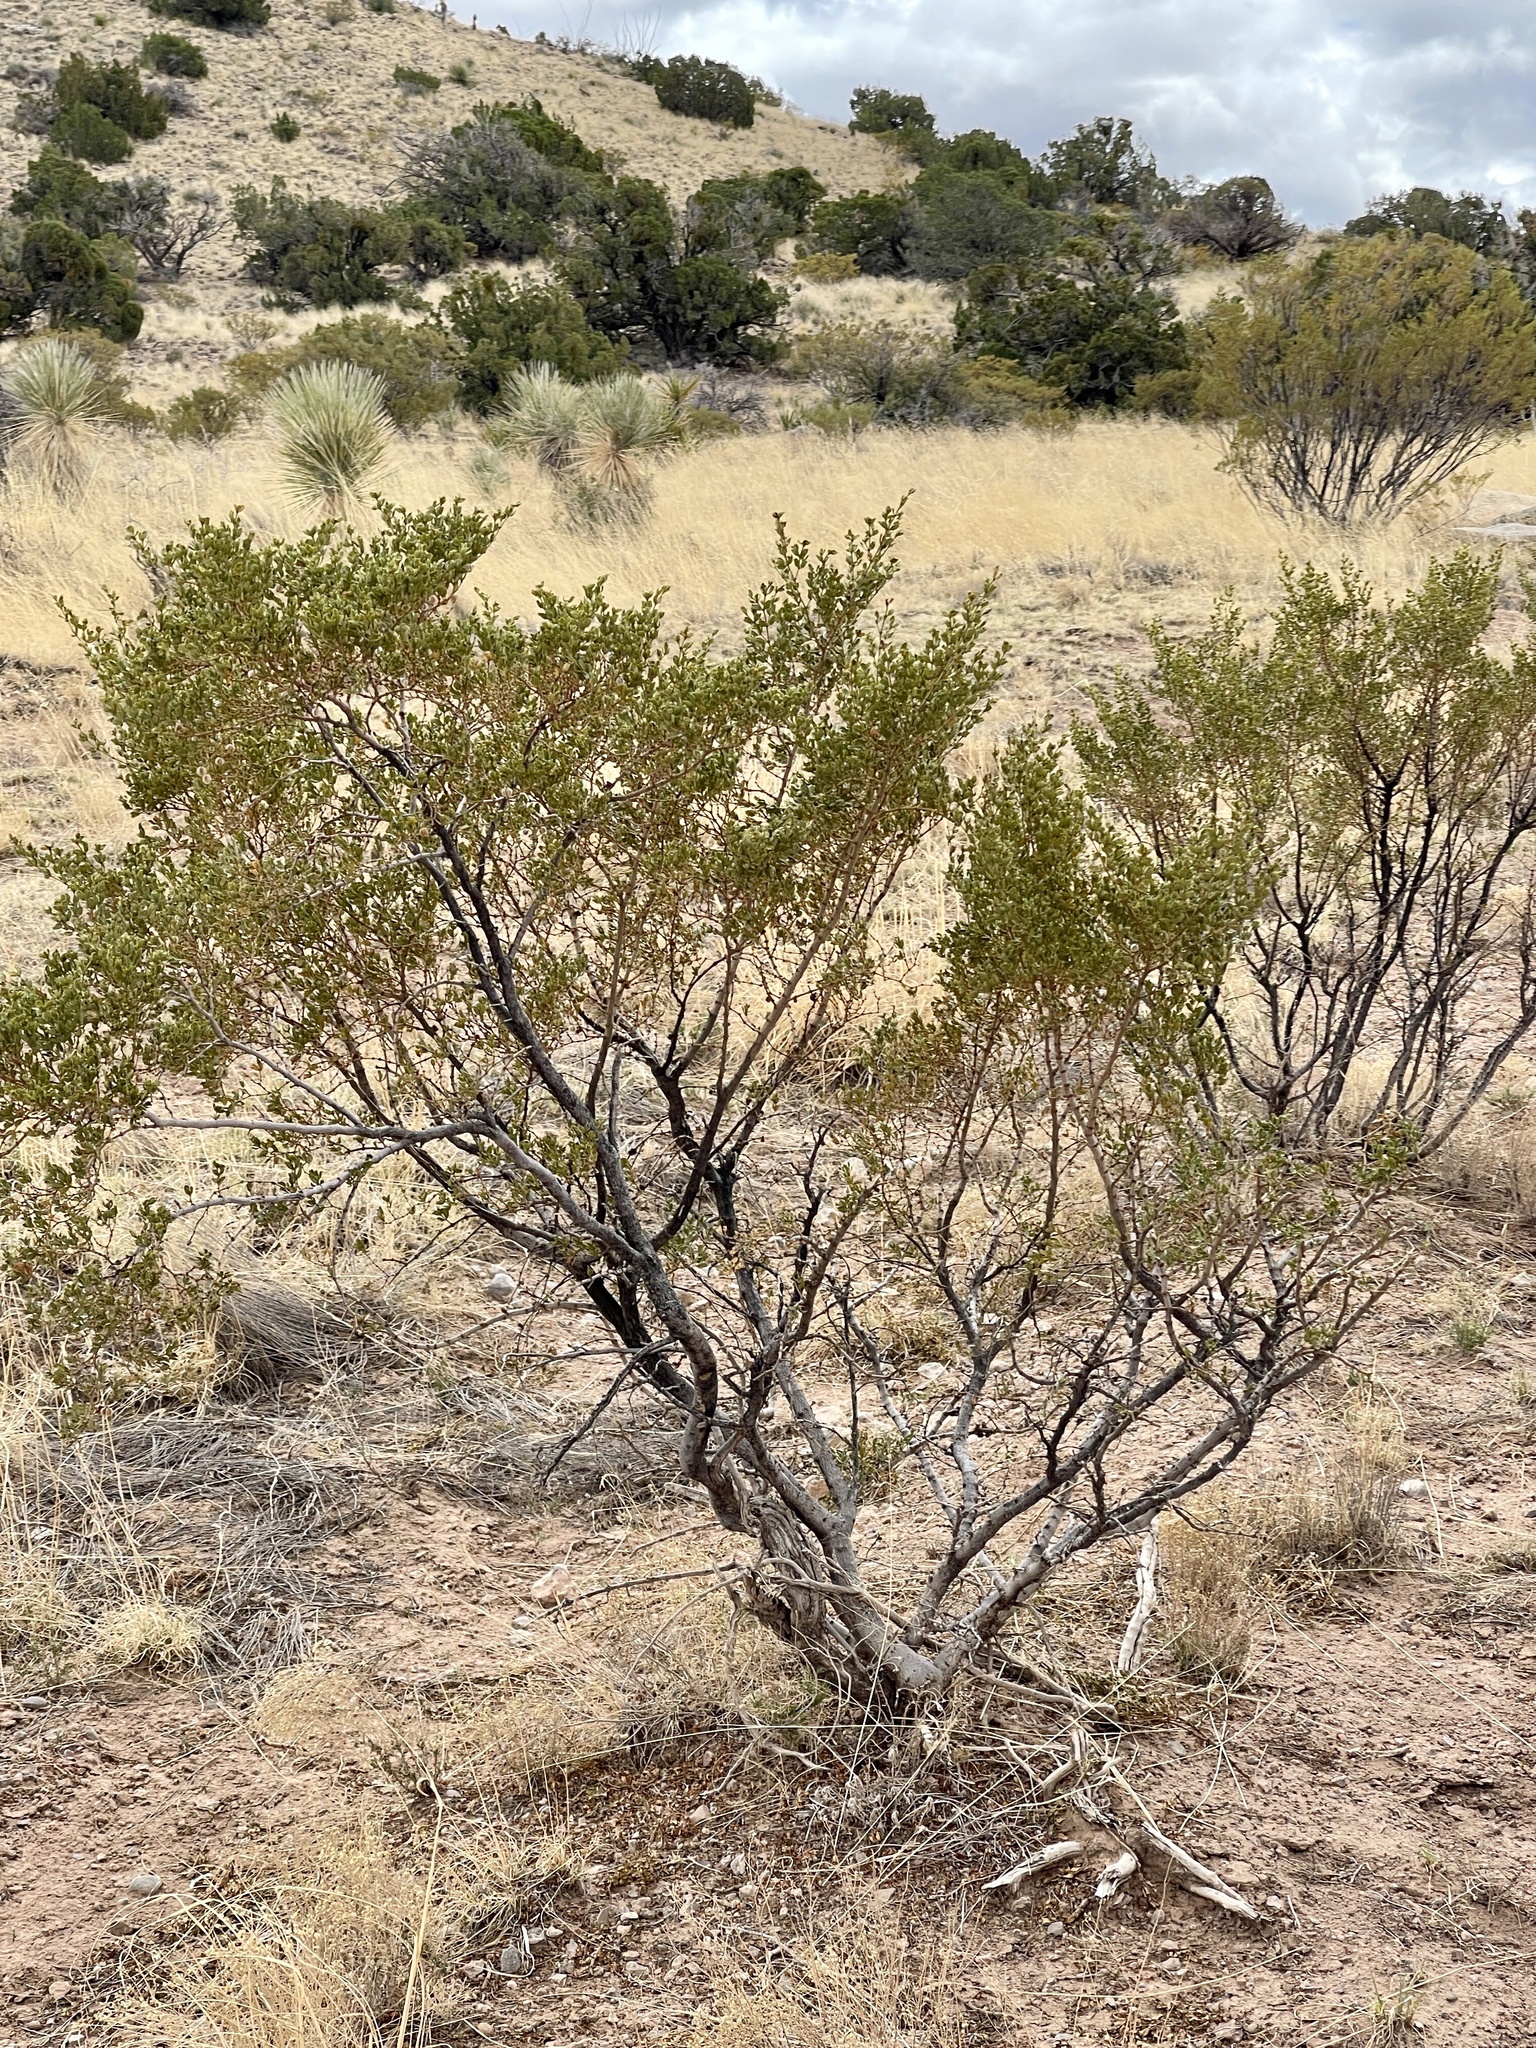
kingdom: Plantae
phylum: Tracheophyta
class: Magnoliopsida
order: Zygophyllales
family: Zygophyllaceae
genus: Larrea
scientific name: Larrea tridentata
